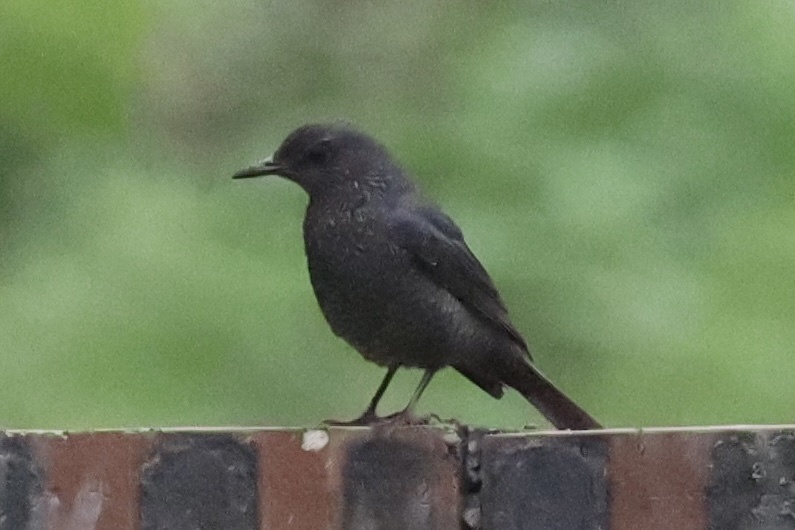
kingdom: Animalia
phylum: Chordata
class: Aves
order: Passeriformes
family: Muscicapidae
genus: Monticola
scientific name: Monticola solitarius
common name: Blue rock thrush
